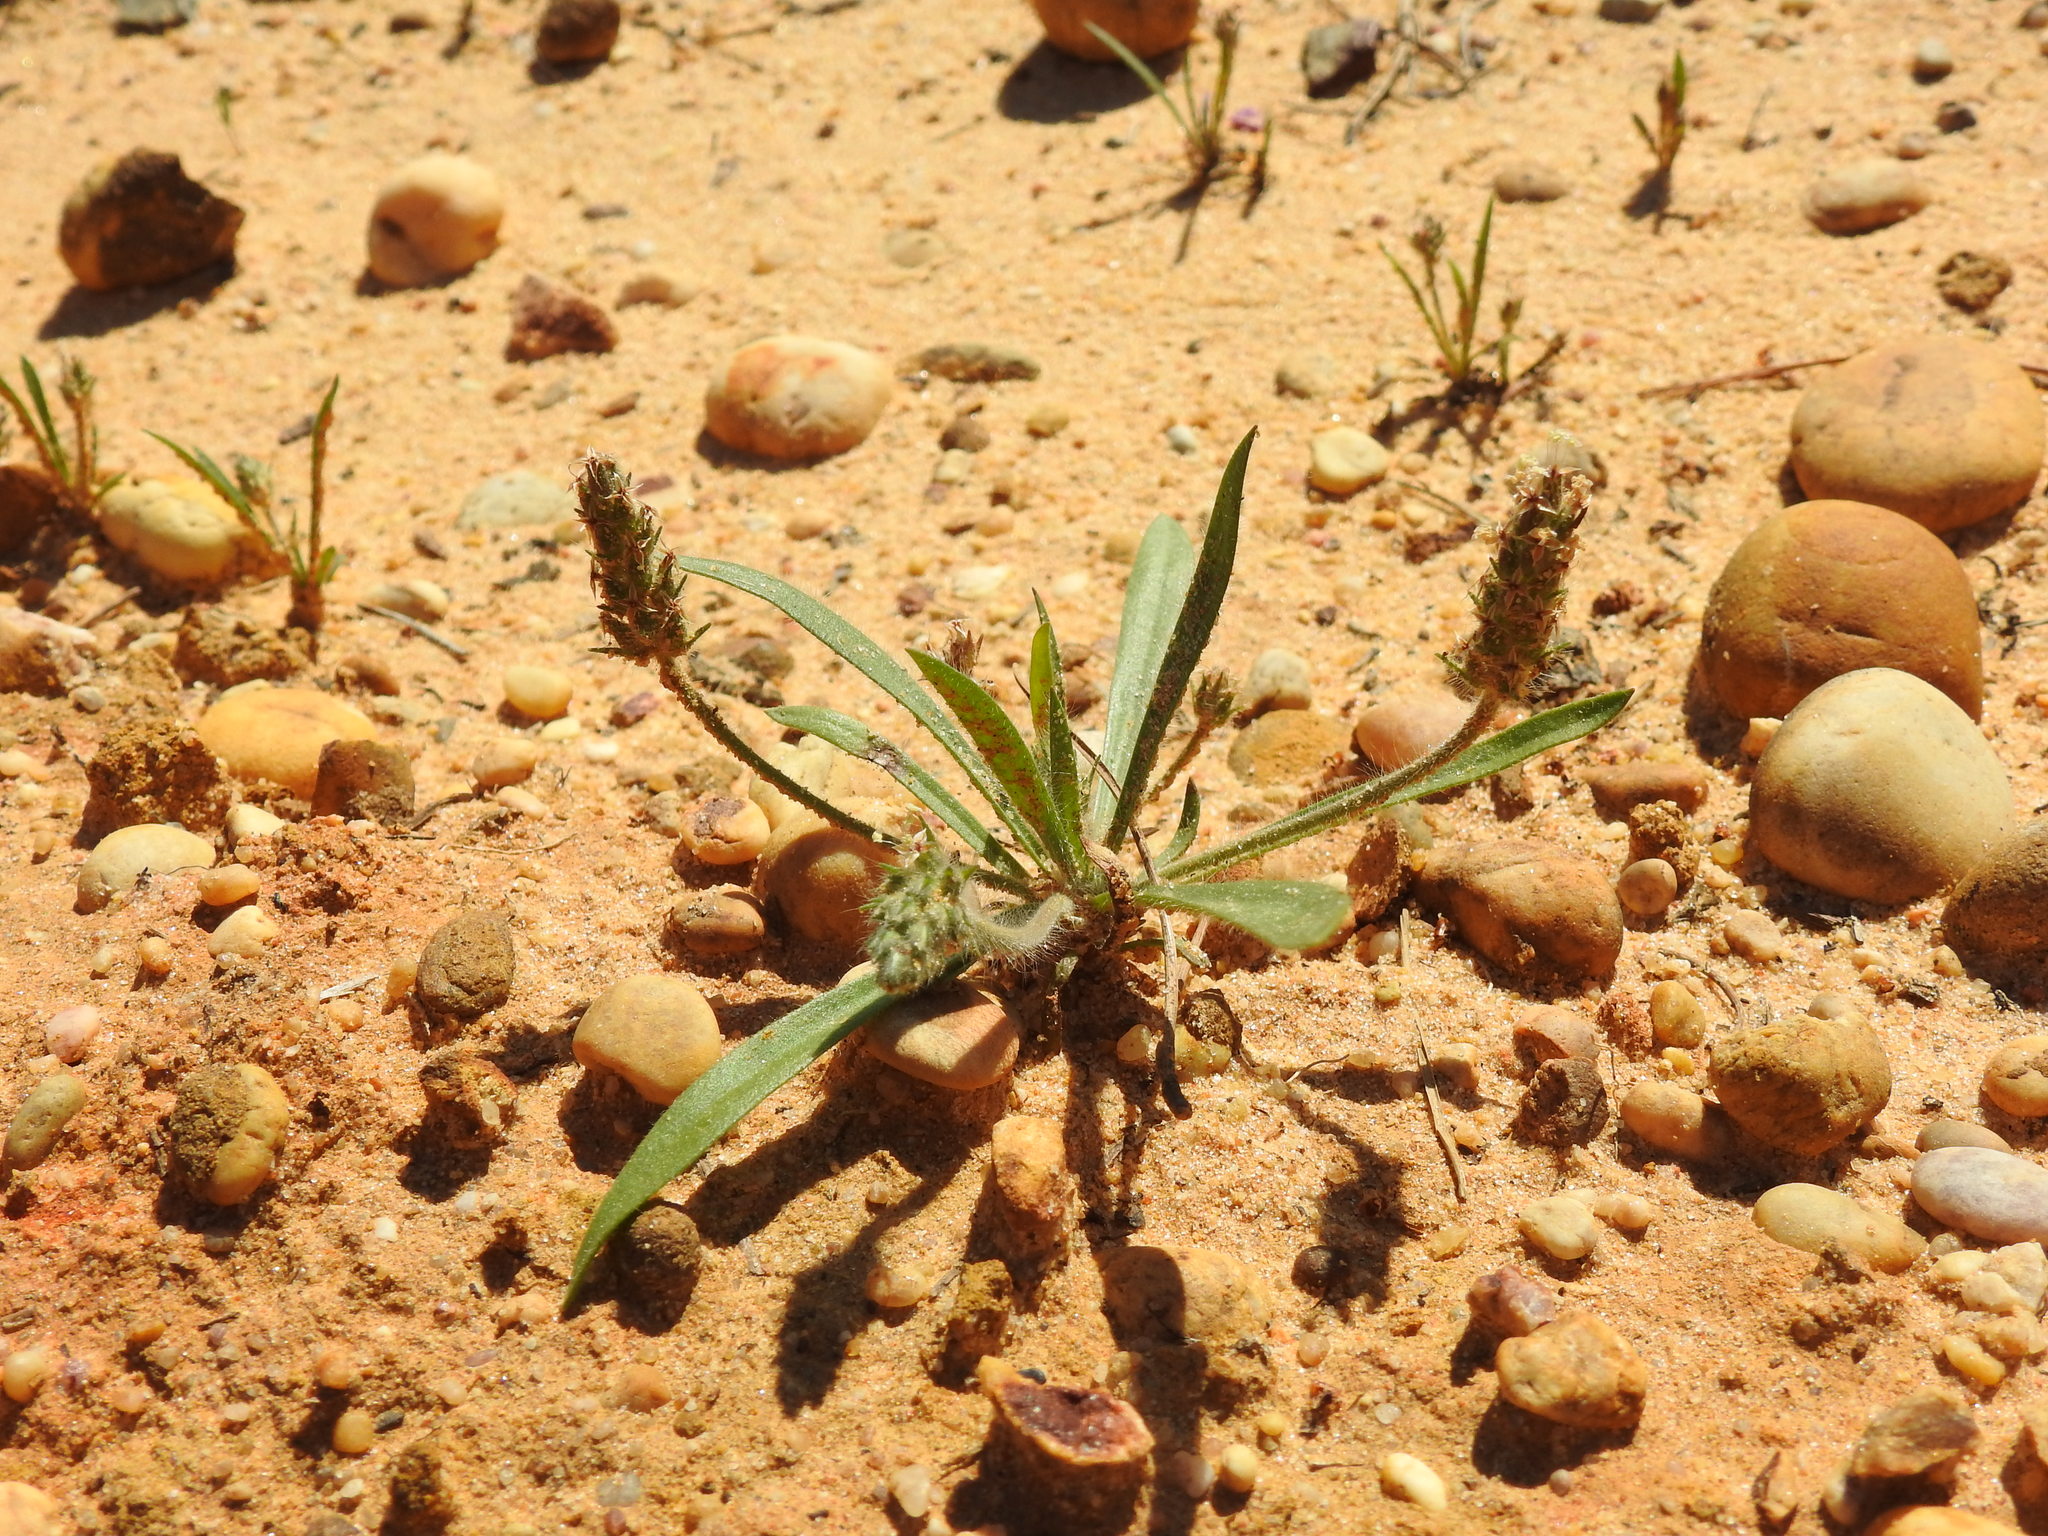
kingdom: Plantae
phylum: Tracheophyta
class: Magnoliopsida
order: Lamiales
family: Plantaginaceae
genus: Plantago
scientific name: Plantago bellardii
